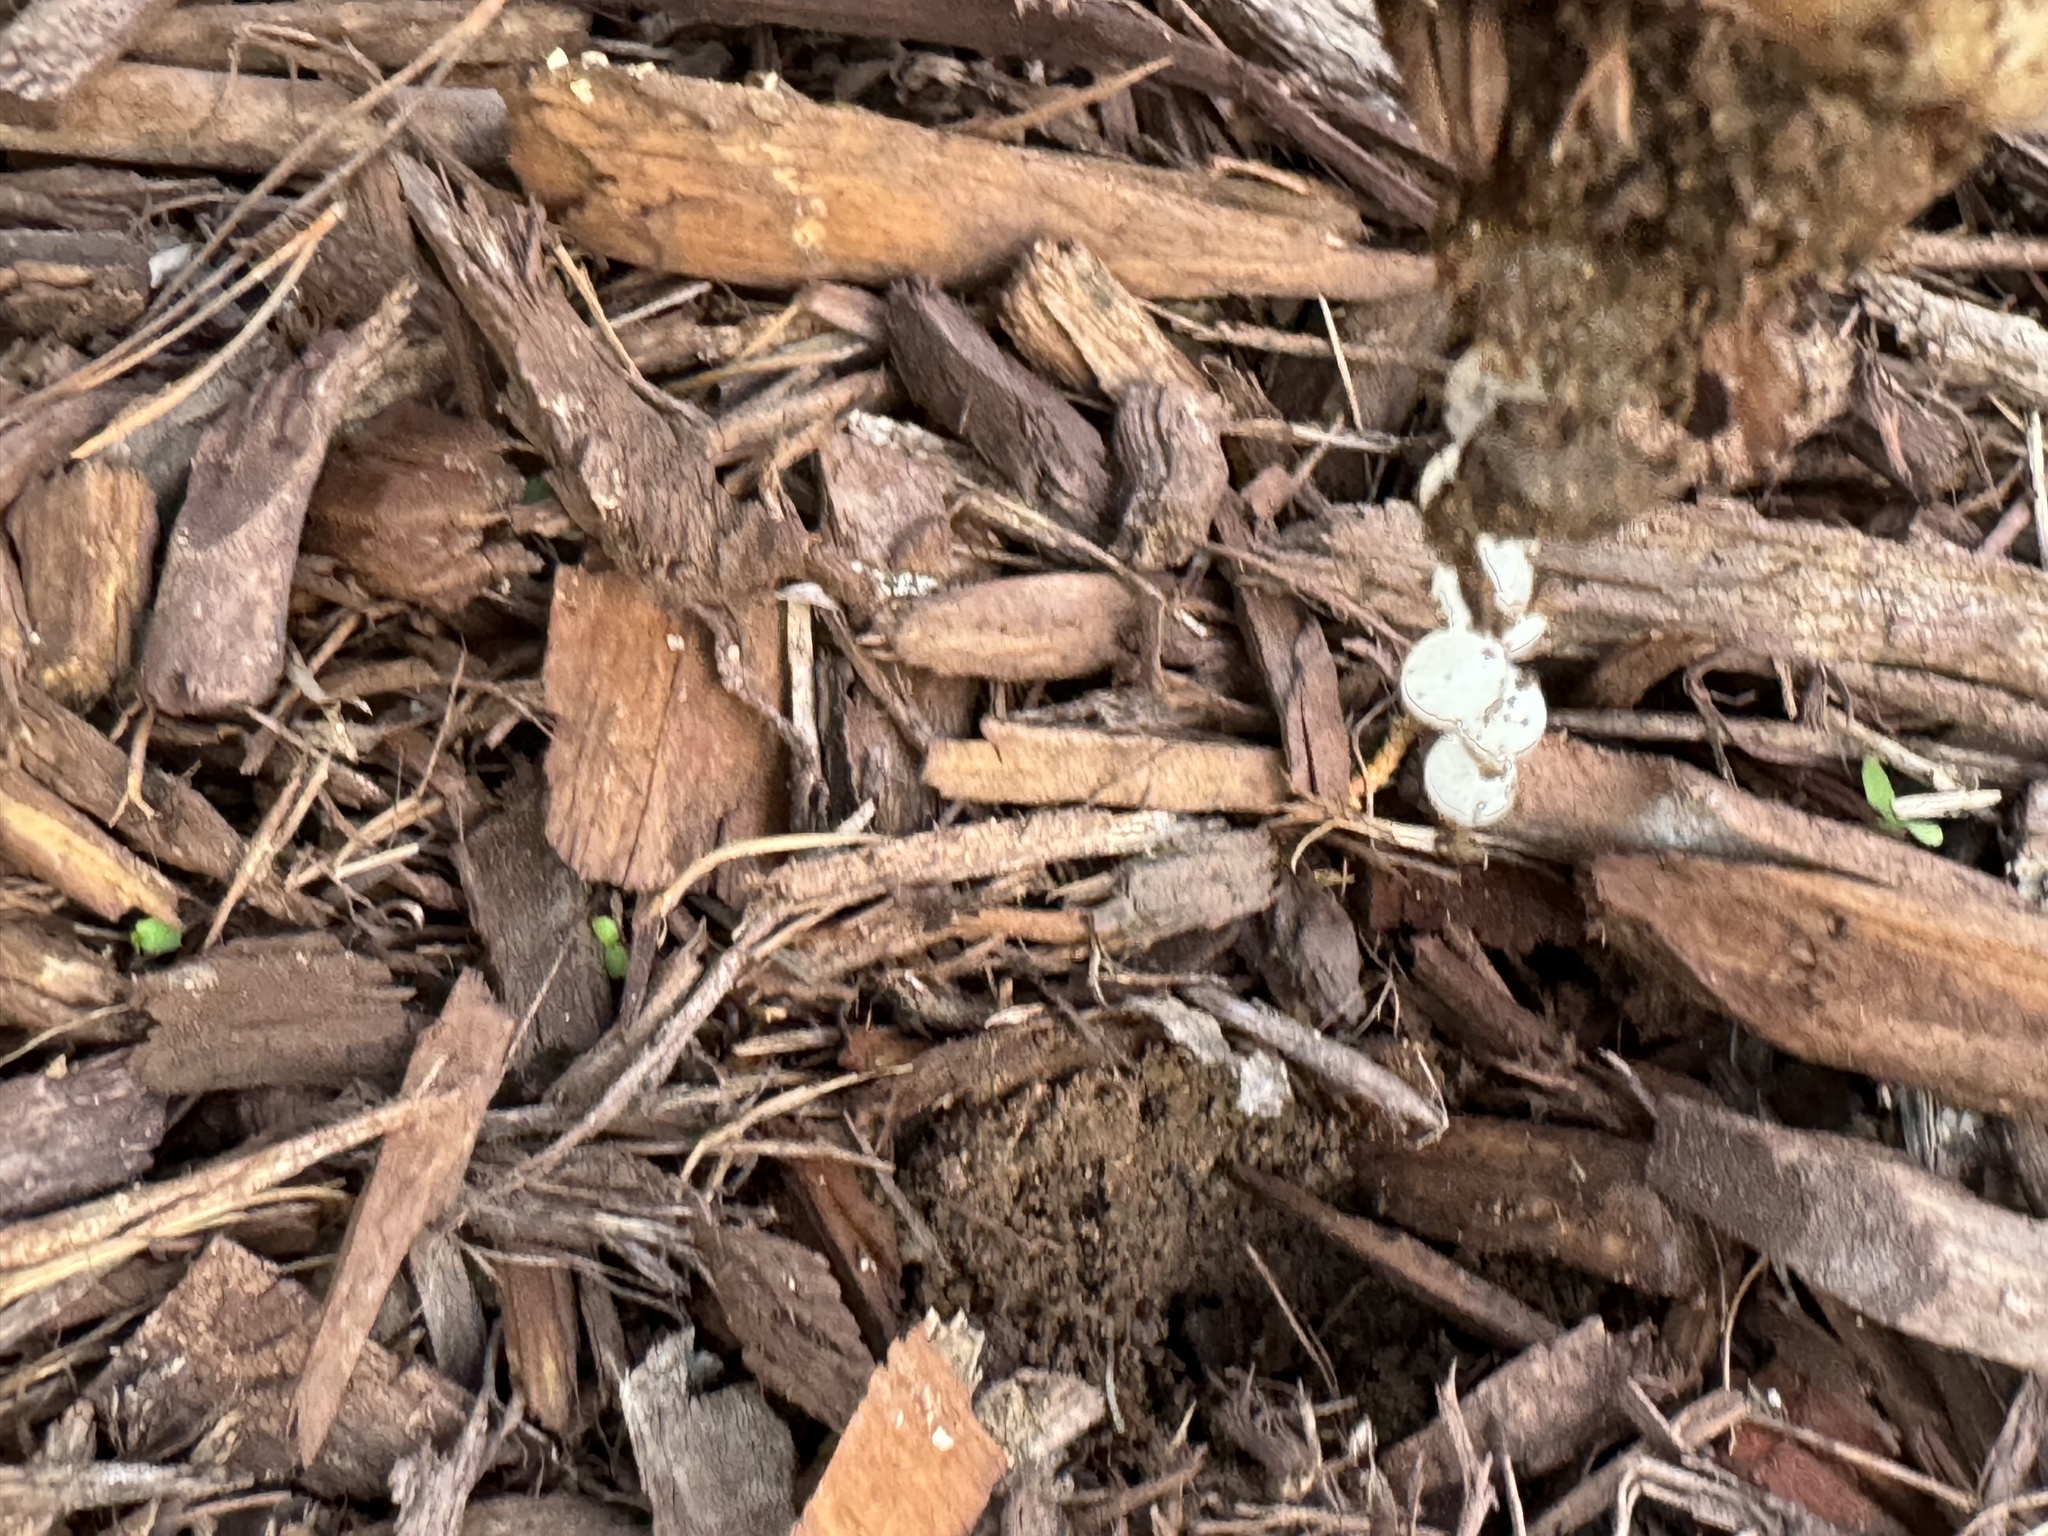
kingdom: Animalia
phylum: Mollusca
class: Gastropoda
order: Stylommatophora
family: Helicidae
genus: Otala
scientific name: Otala lactea
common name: Milk snail
